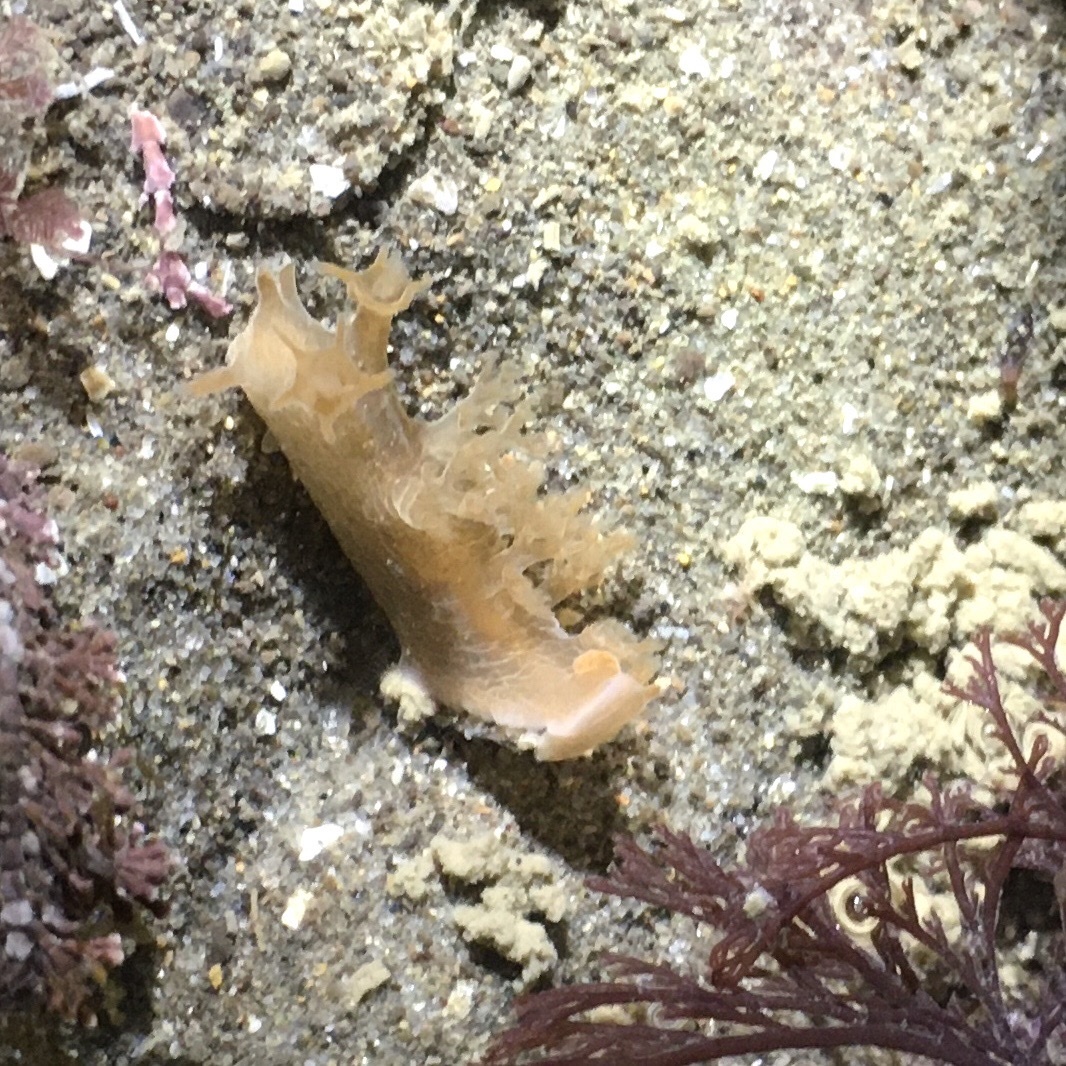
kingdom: Animalia
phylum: Mollusca
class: Gastropoda
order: Nudibranchia
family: Dendronotidae
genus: Dendronotus
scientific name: Dendronotus subramosus
